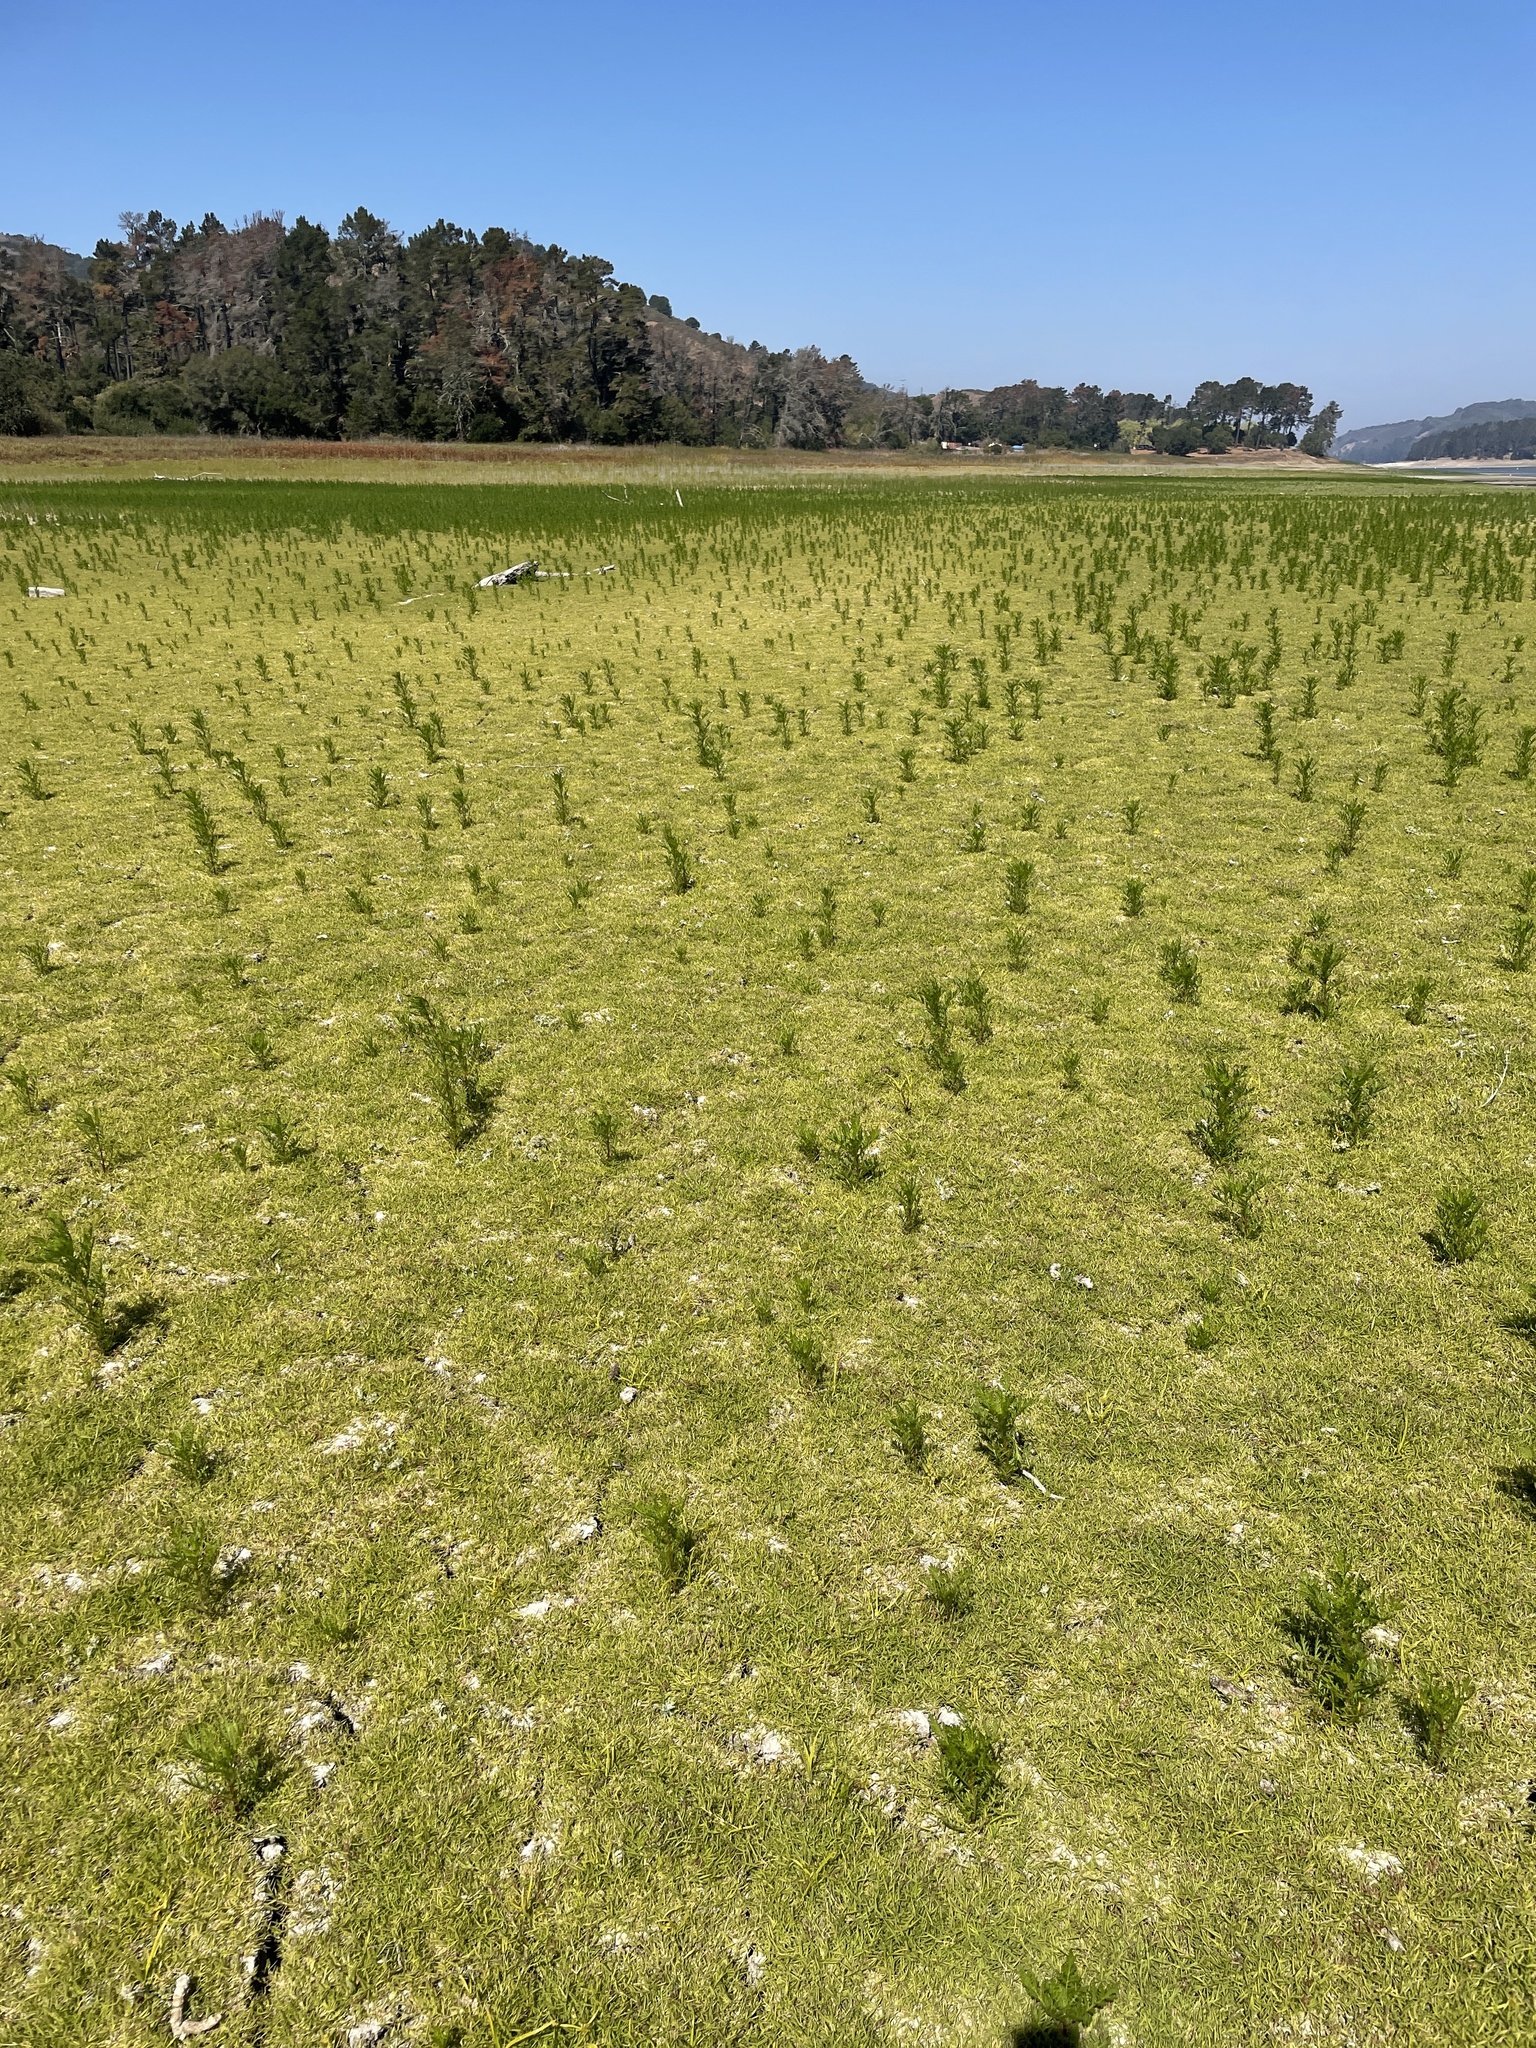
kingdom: Plantae
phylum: Tracheophyta
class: Magnoliopsida
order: Asterales
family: Asteraceae
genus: Artemisia
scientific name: Artemisia biennis
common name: Biennial wormwood
